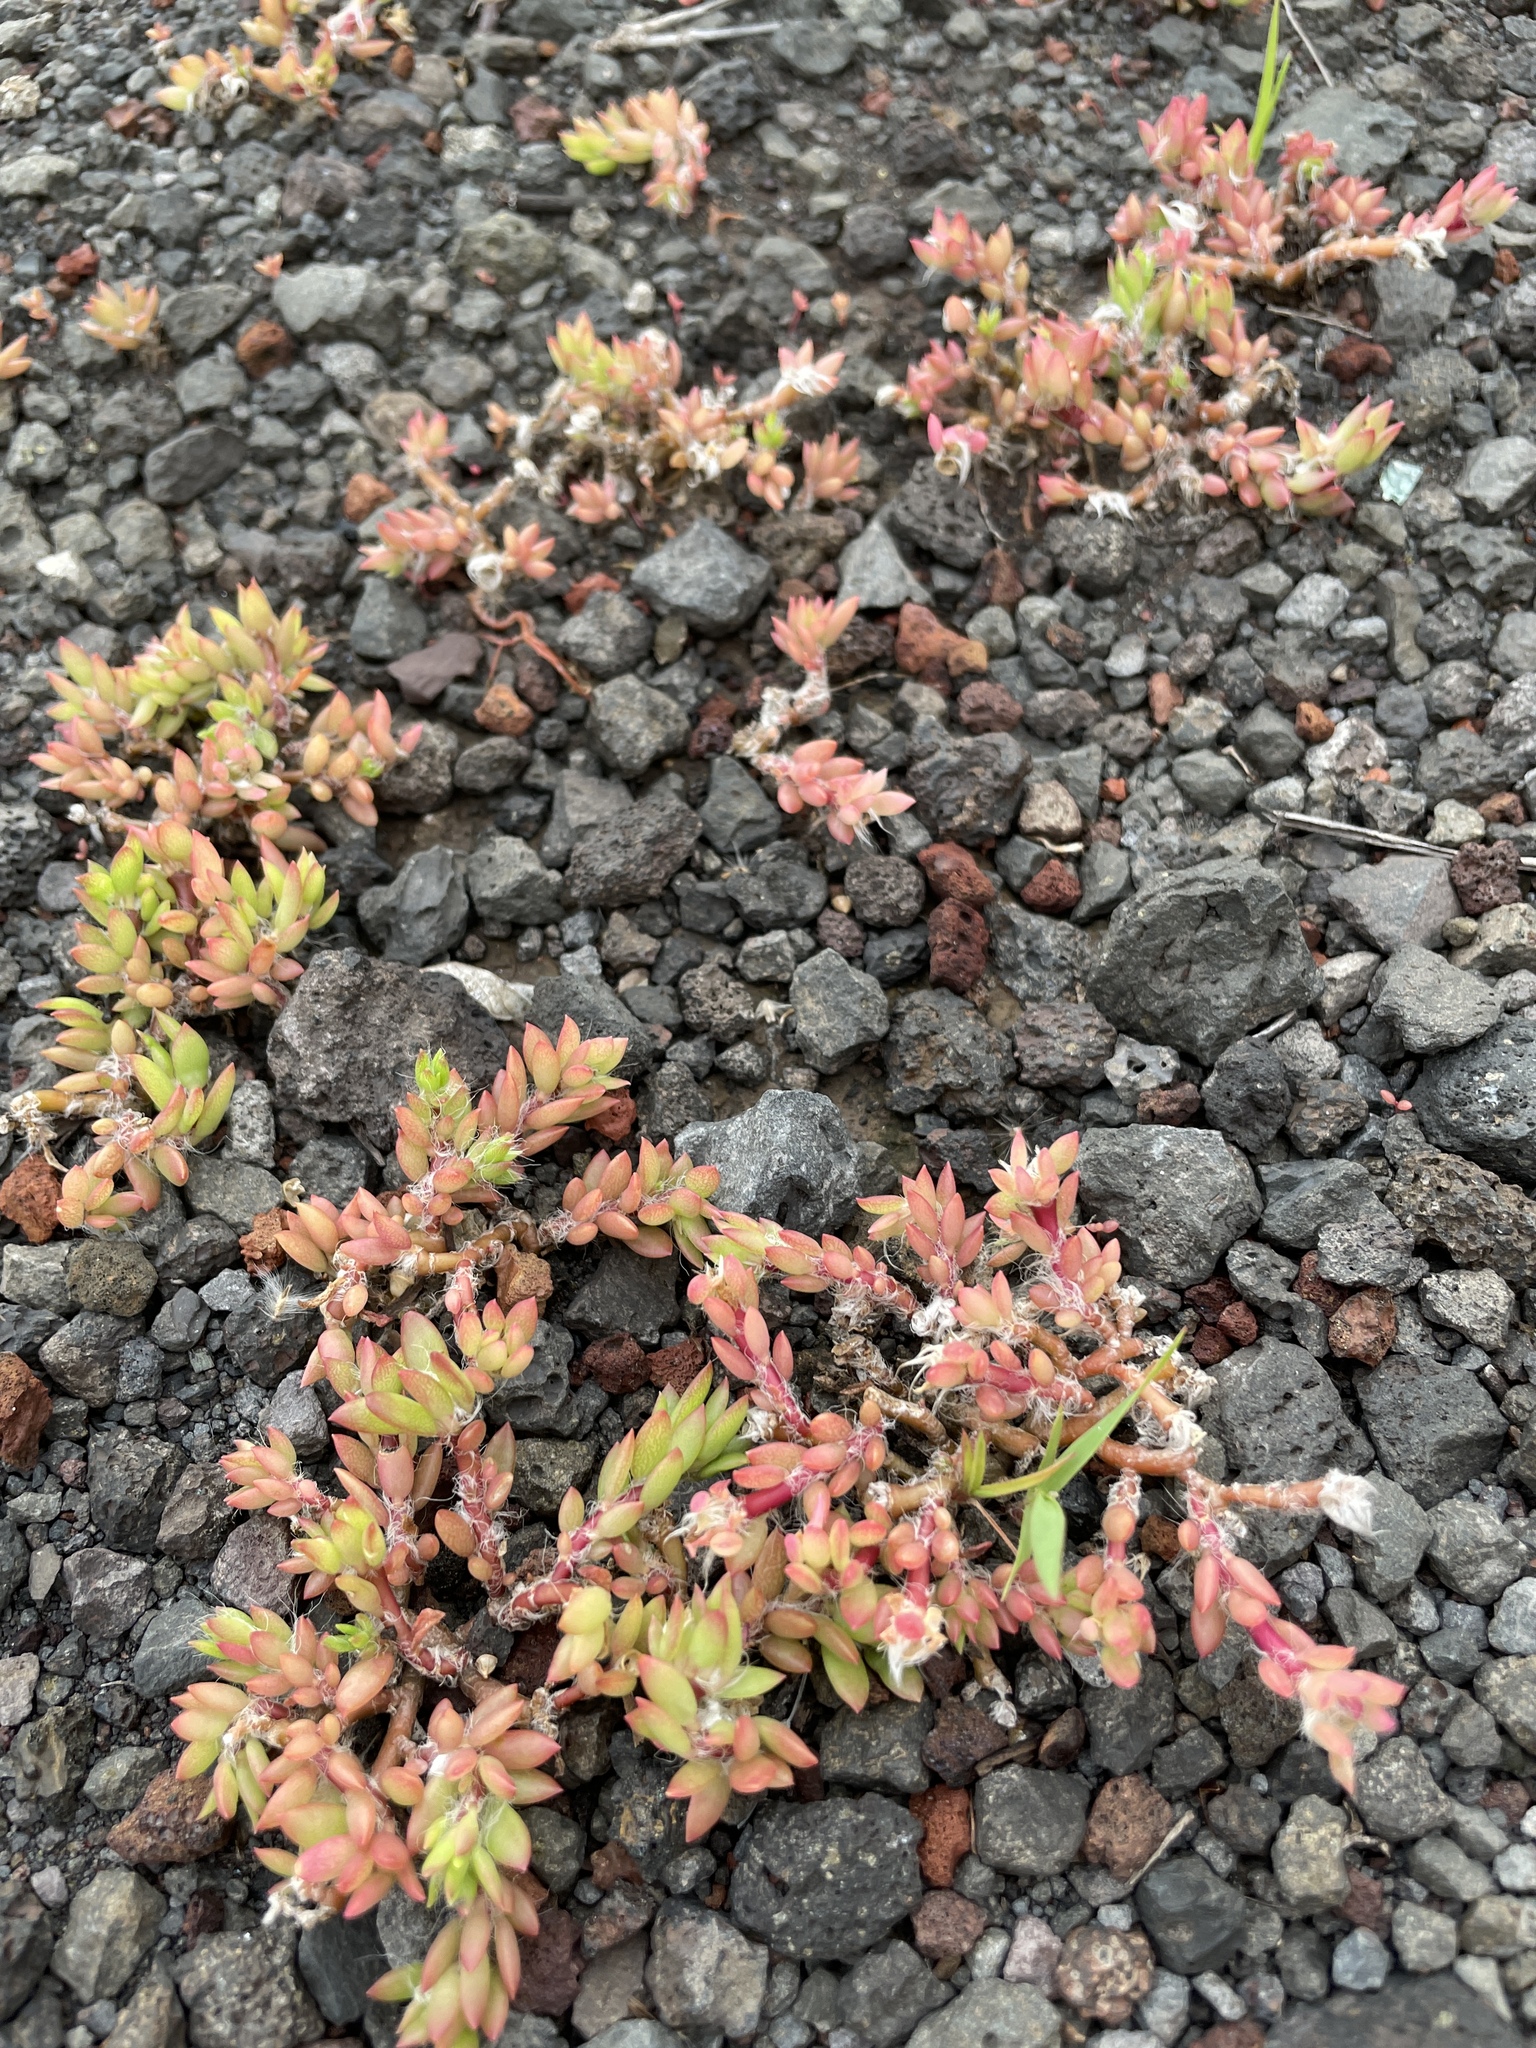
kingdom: Plantae
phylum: Tracheophyta
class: Magnoliopsida
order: Caryophyllales
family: Portulacaceae
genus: Portulaca
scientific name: Portulaca pilosa
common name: Kiss me quick
